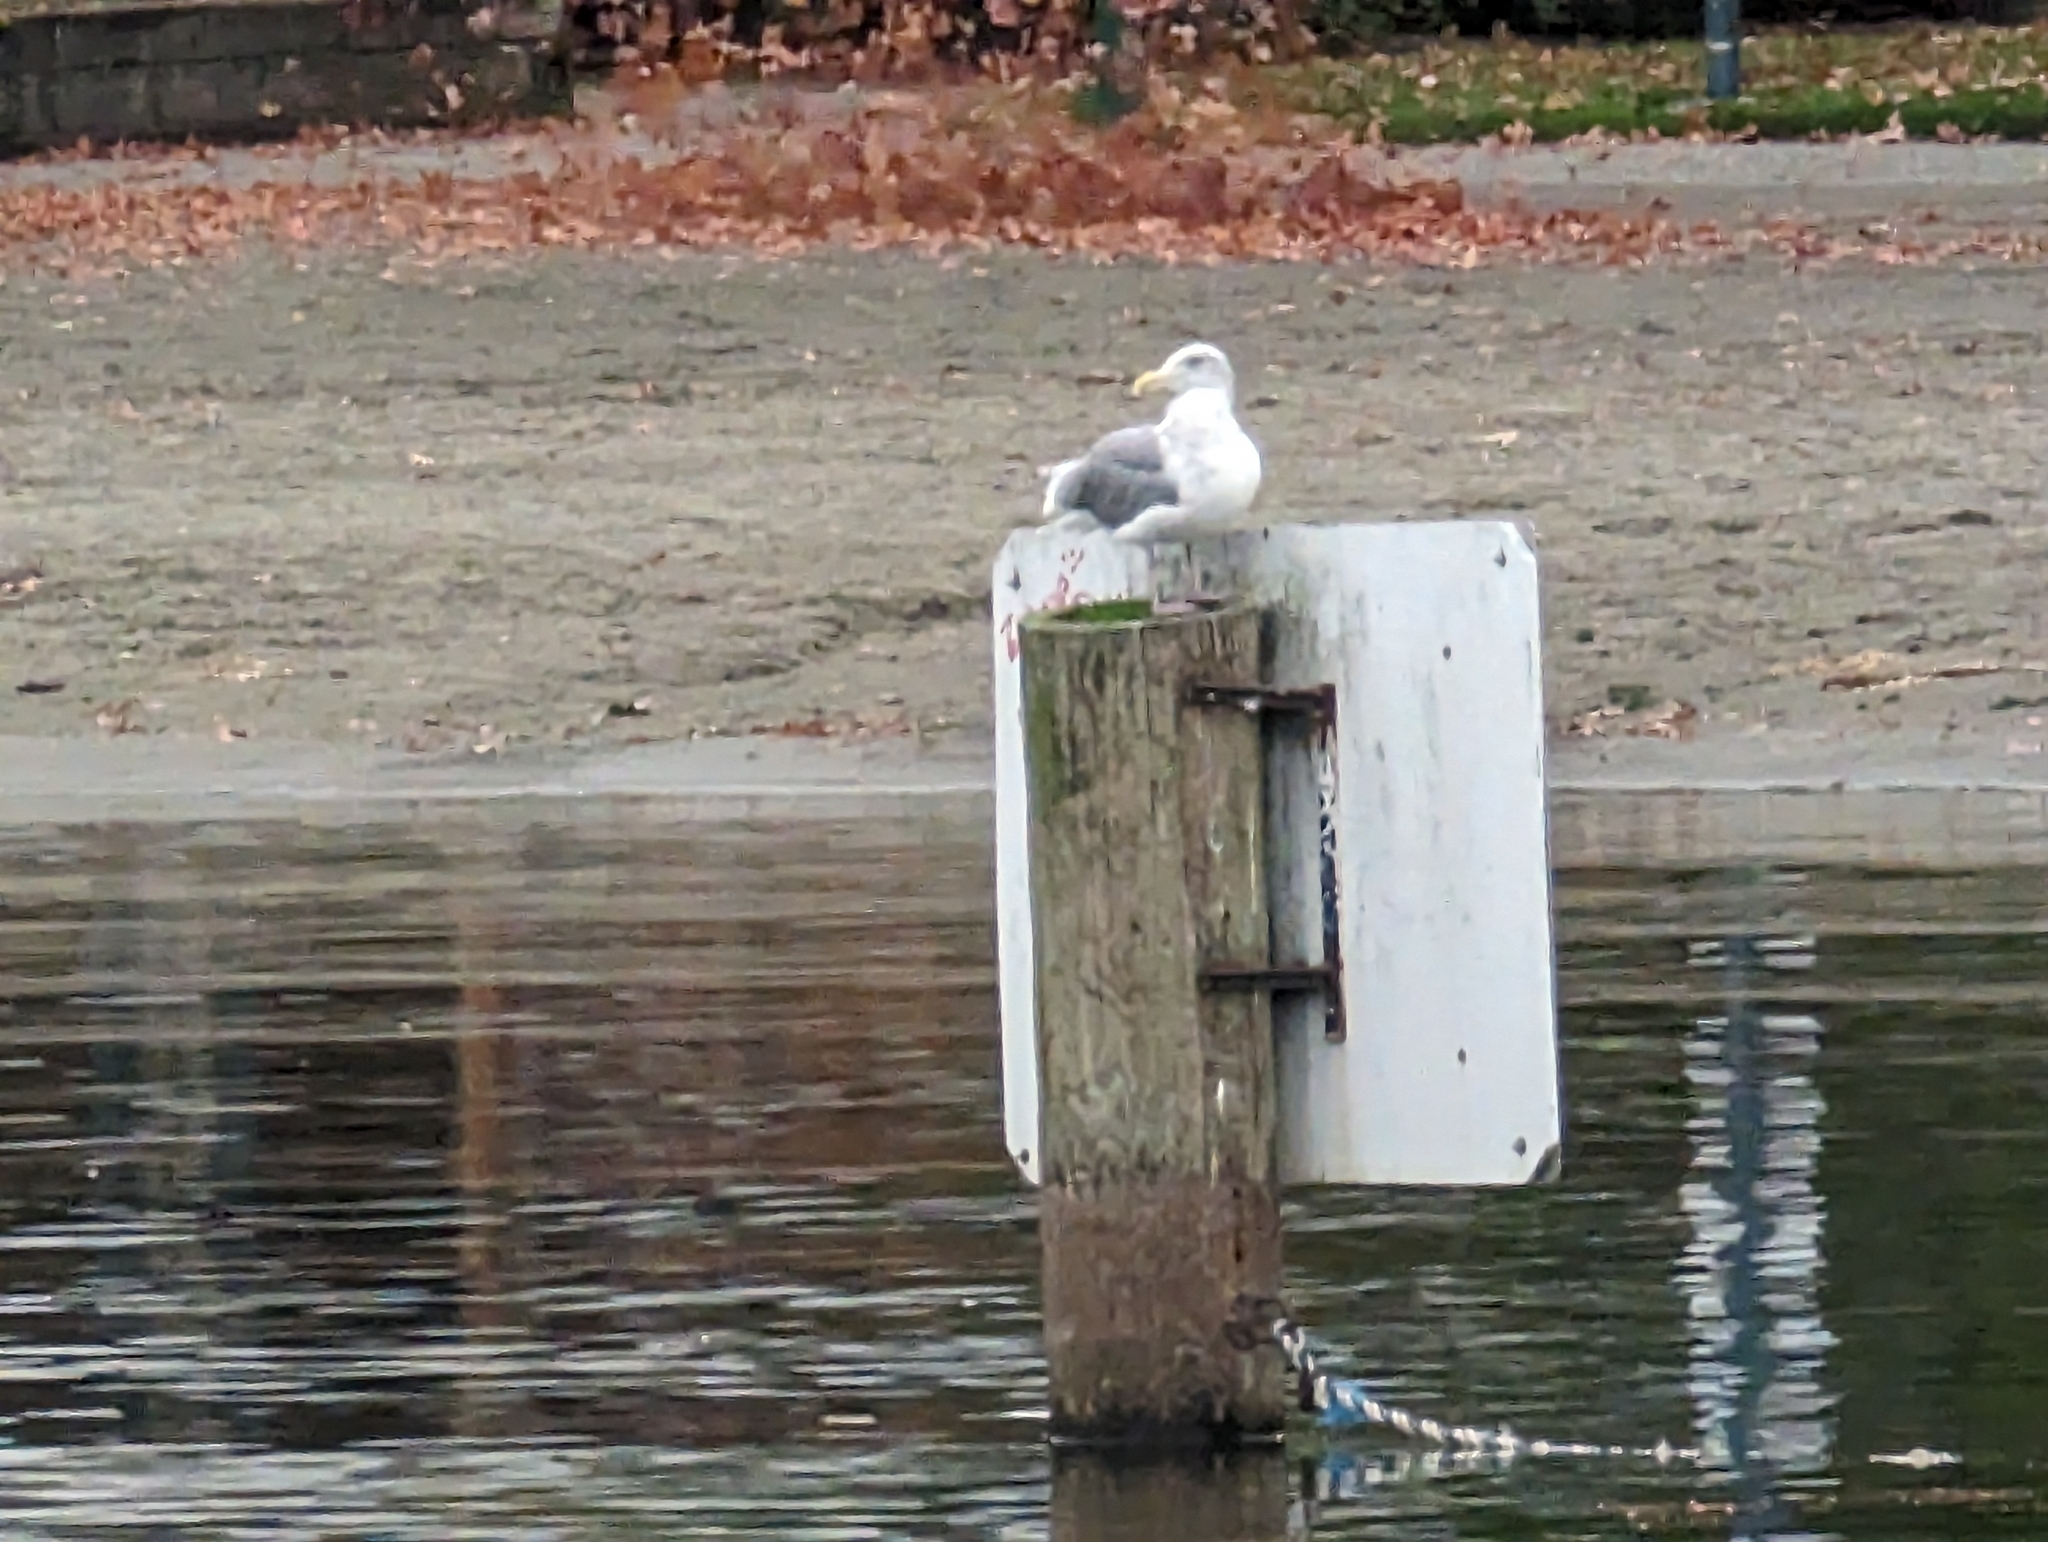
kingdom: Animalia
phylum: Chordata
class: Aves
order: Charadriiformes
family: Laridae
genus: Larus
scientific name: Larus glaucescens
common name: Glaucous-winged gull
